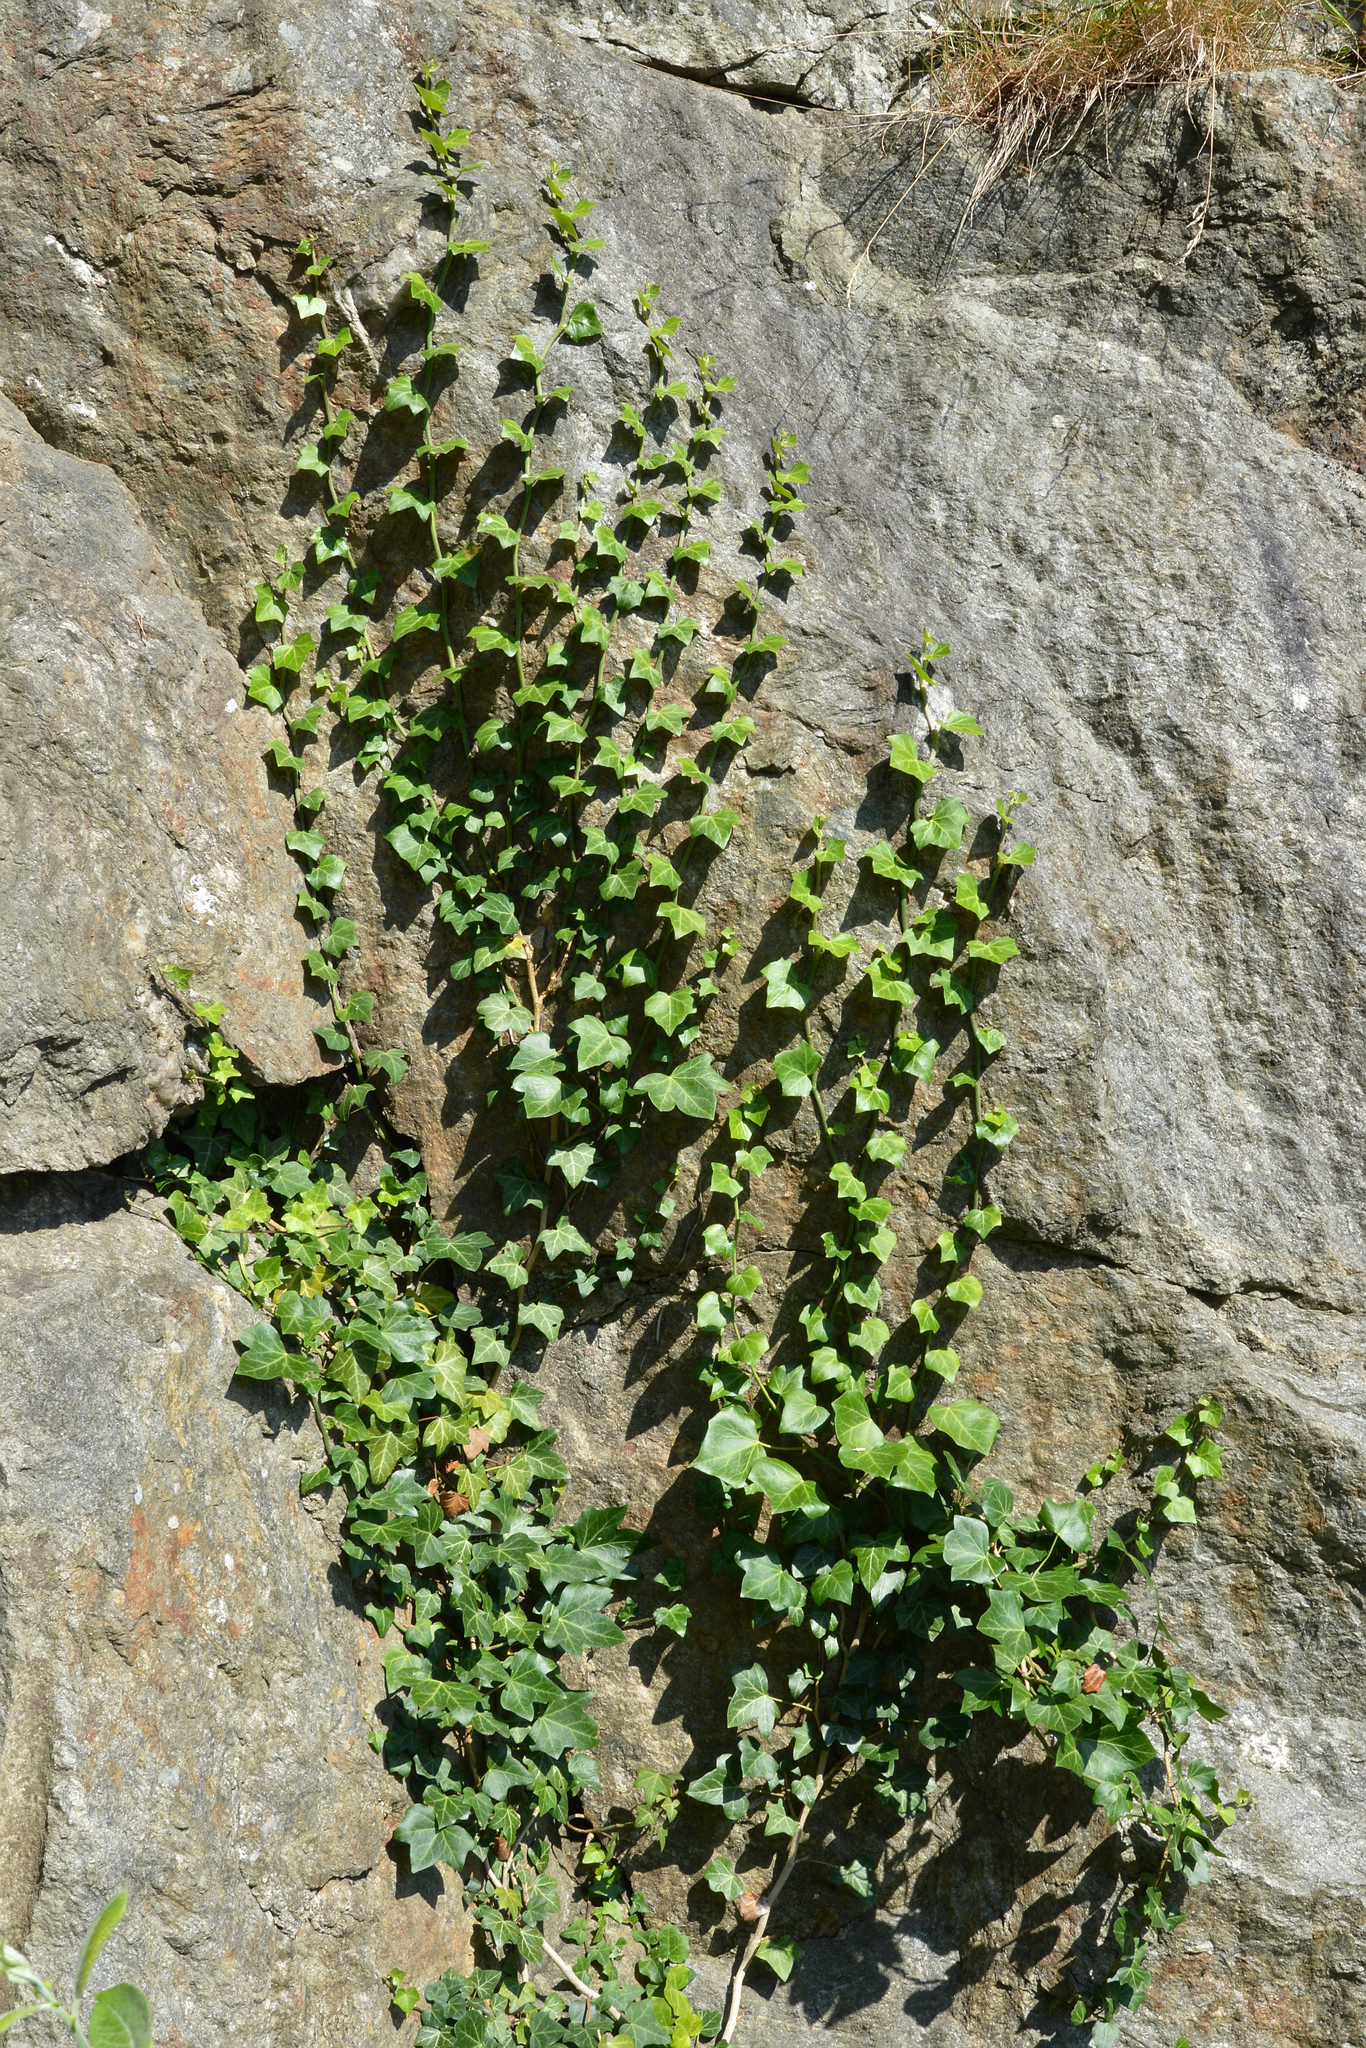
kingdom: Plantae
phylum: Tracheophyta
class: Magnoliopsida
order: Apiales
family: Araliaceae
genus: Hedera
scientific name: Hedera helix
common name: Ivy
